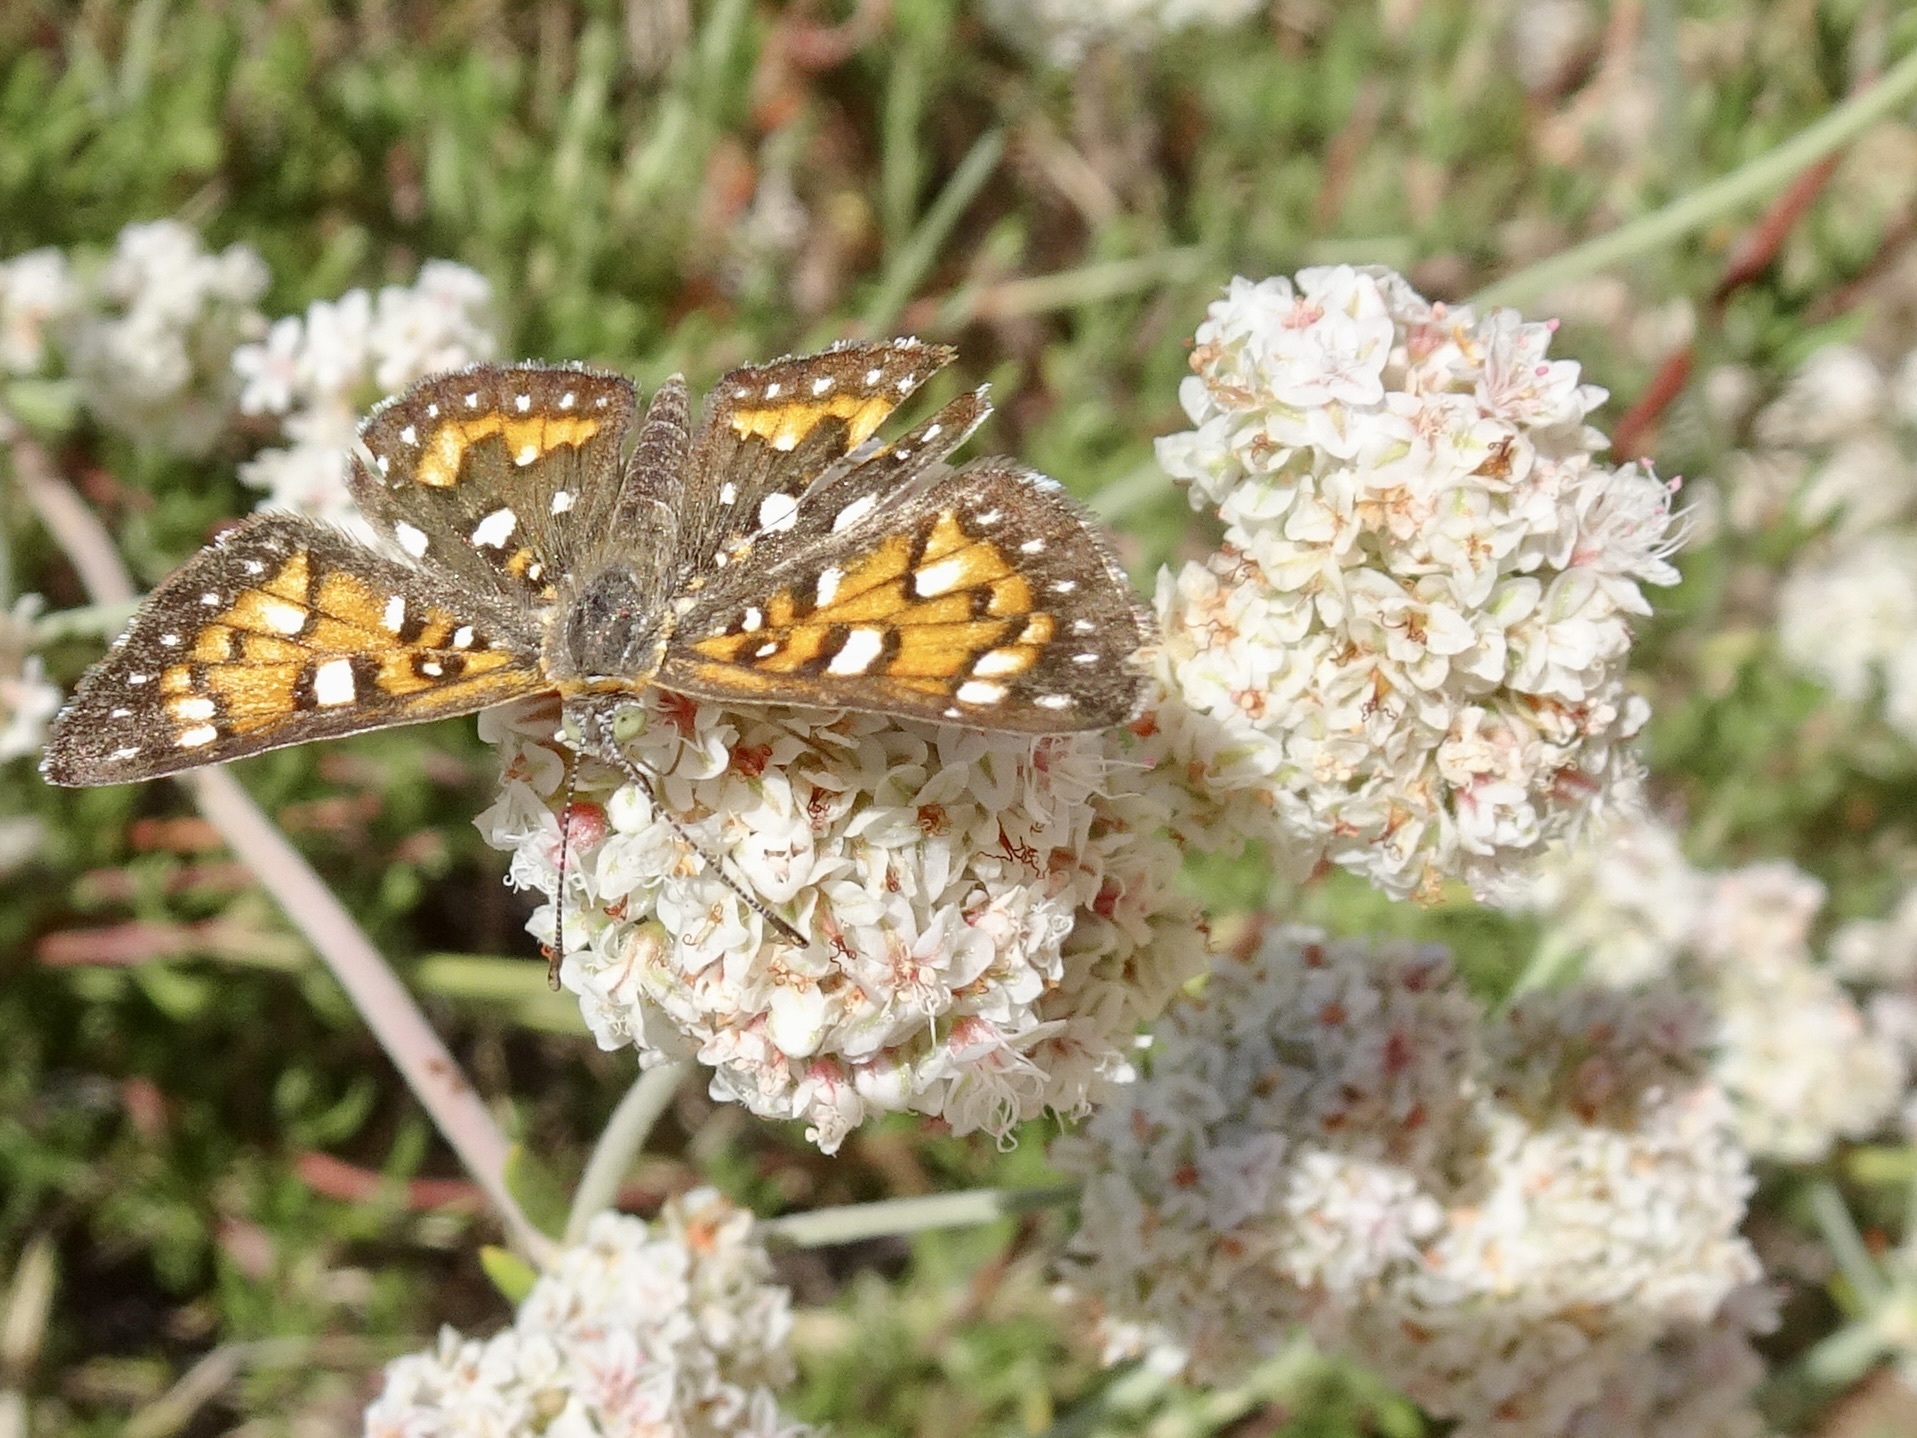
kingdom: Animalia
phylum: Arthropoda
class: Insecta
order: Lepidoptera
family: Riodinidae
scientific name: Riodinidae
